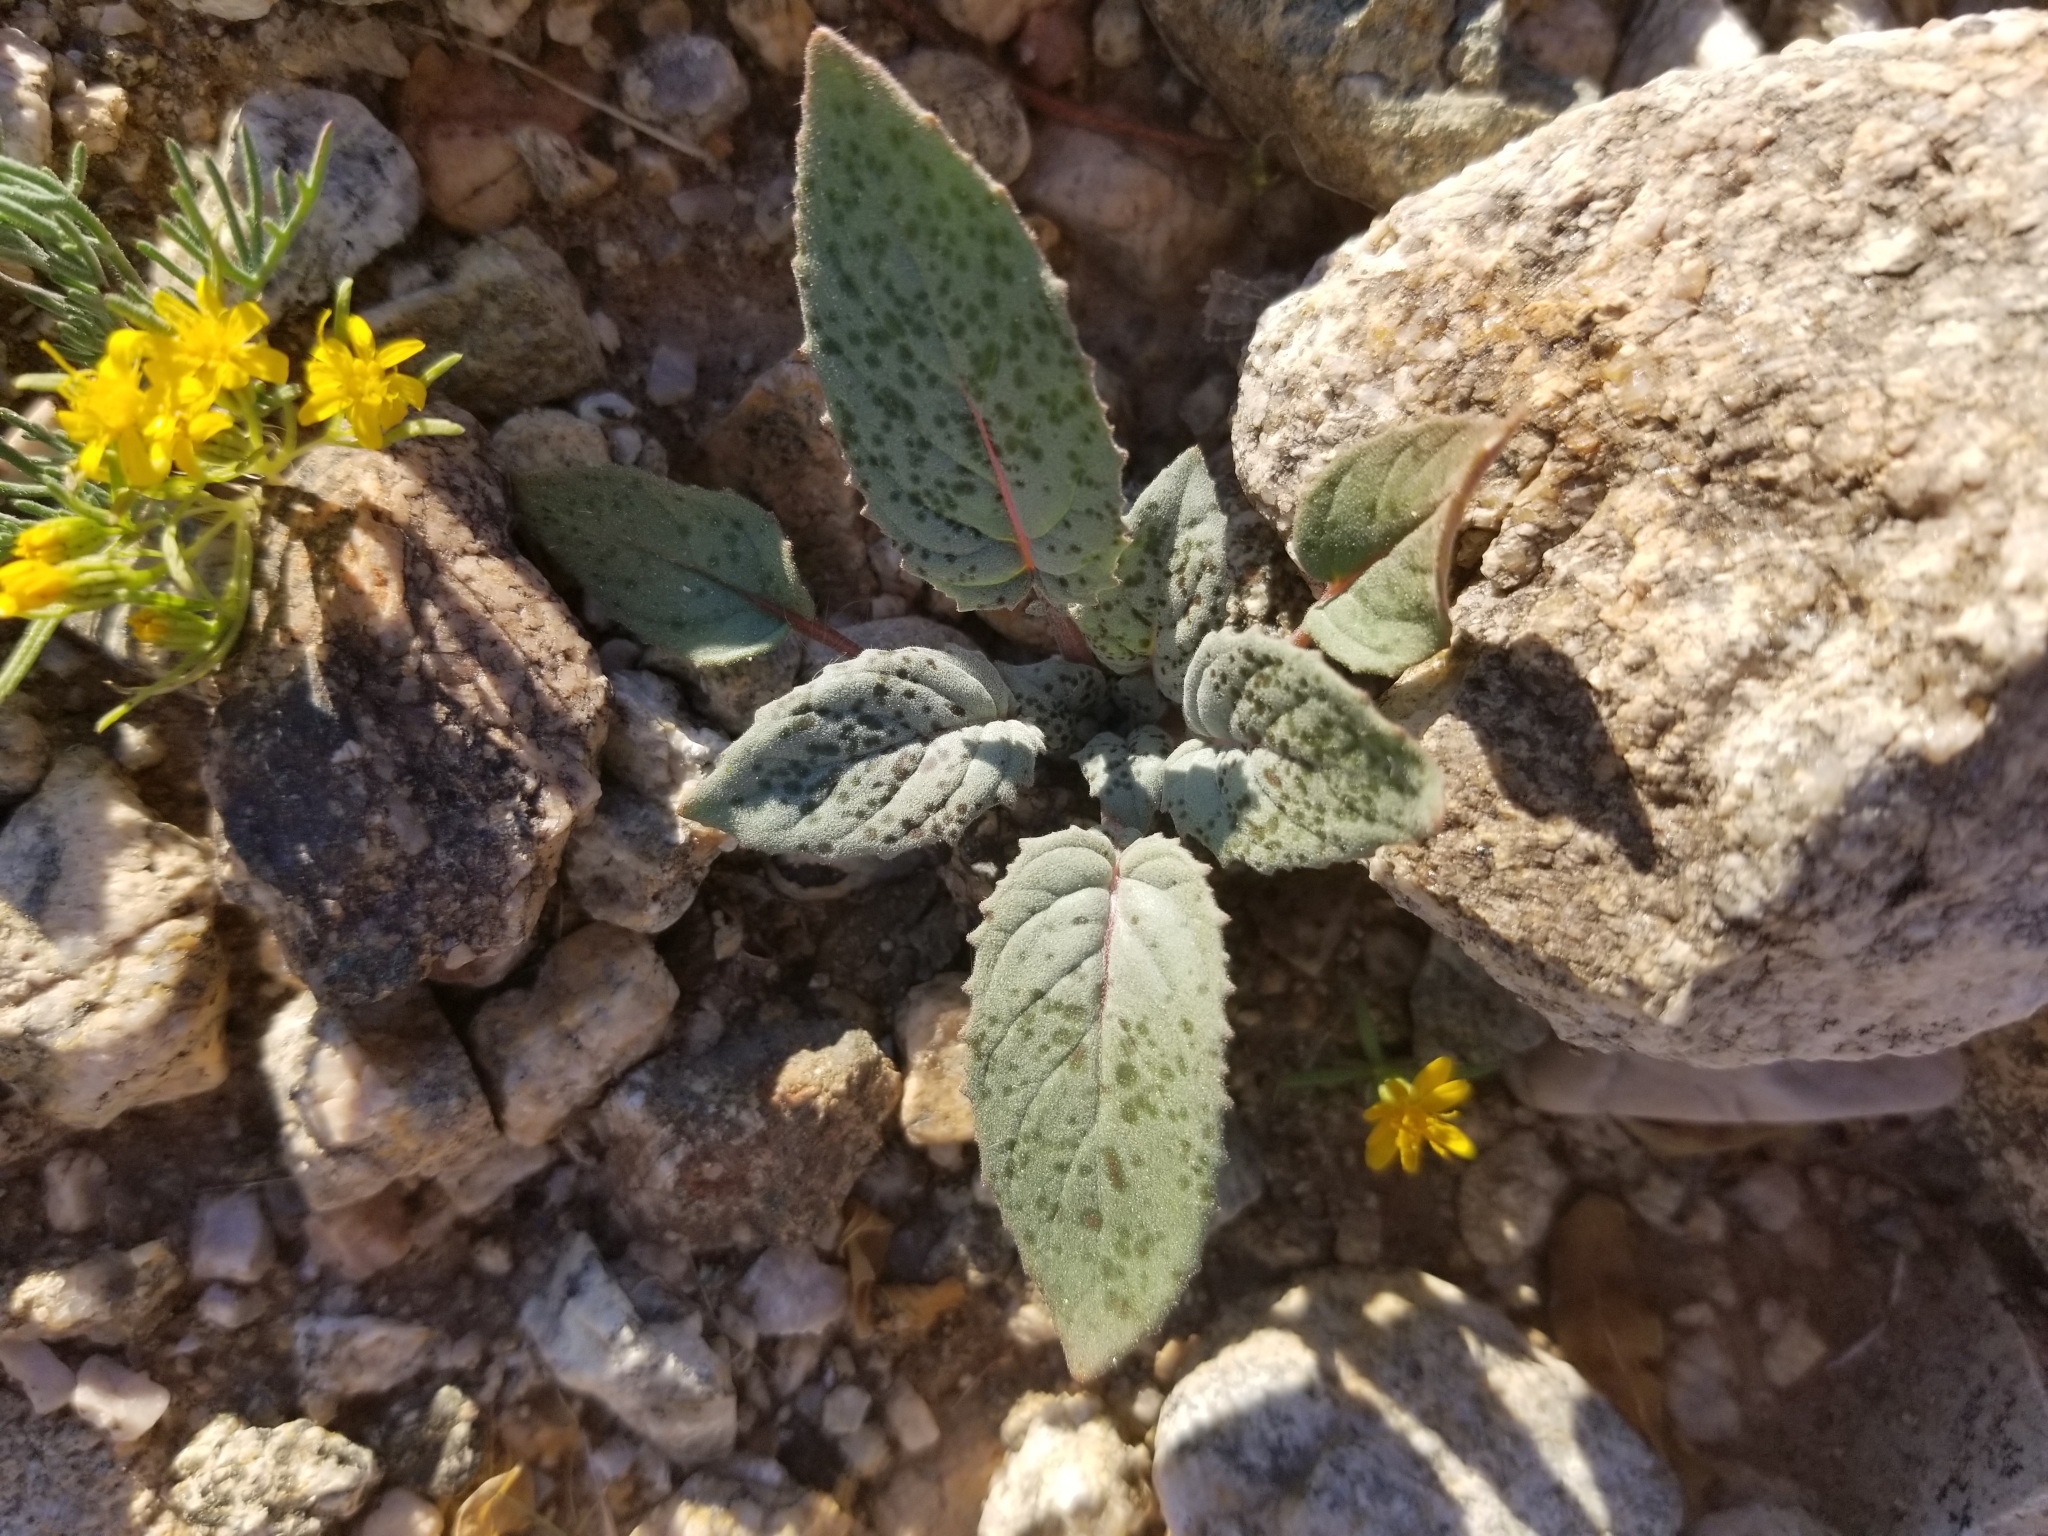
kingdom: Plantae
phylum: Tracheophyta
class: Magnoliopsida
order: Myrtales
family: Onagraceae
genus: Chylismia
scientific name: Chylismia brevipes
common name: Yellow cups
